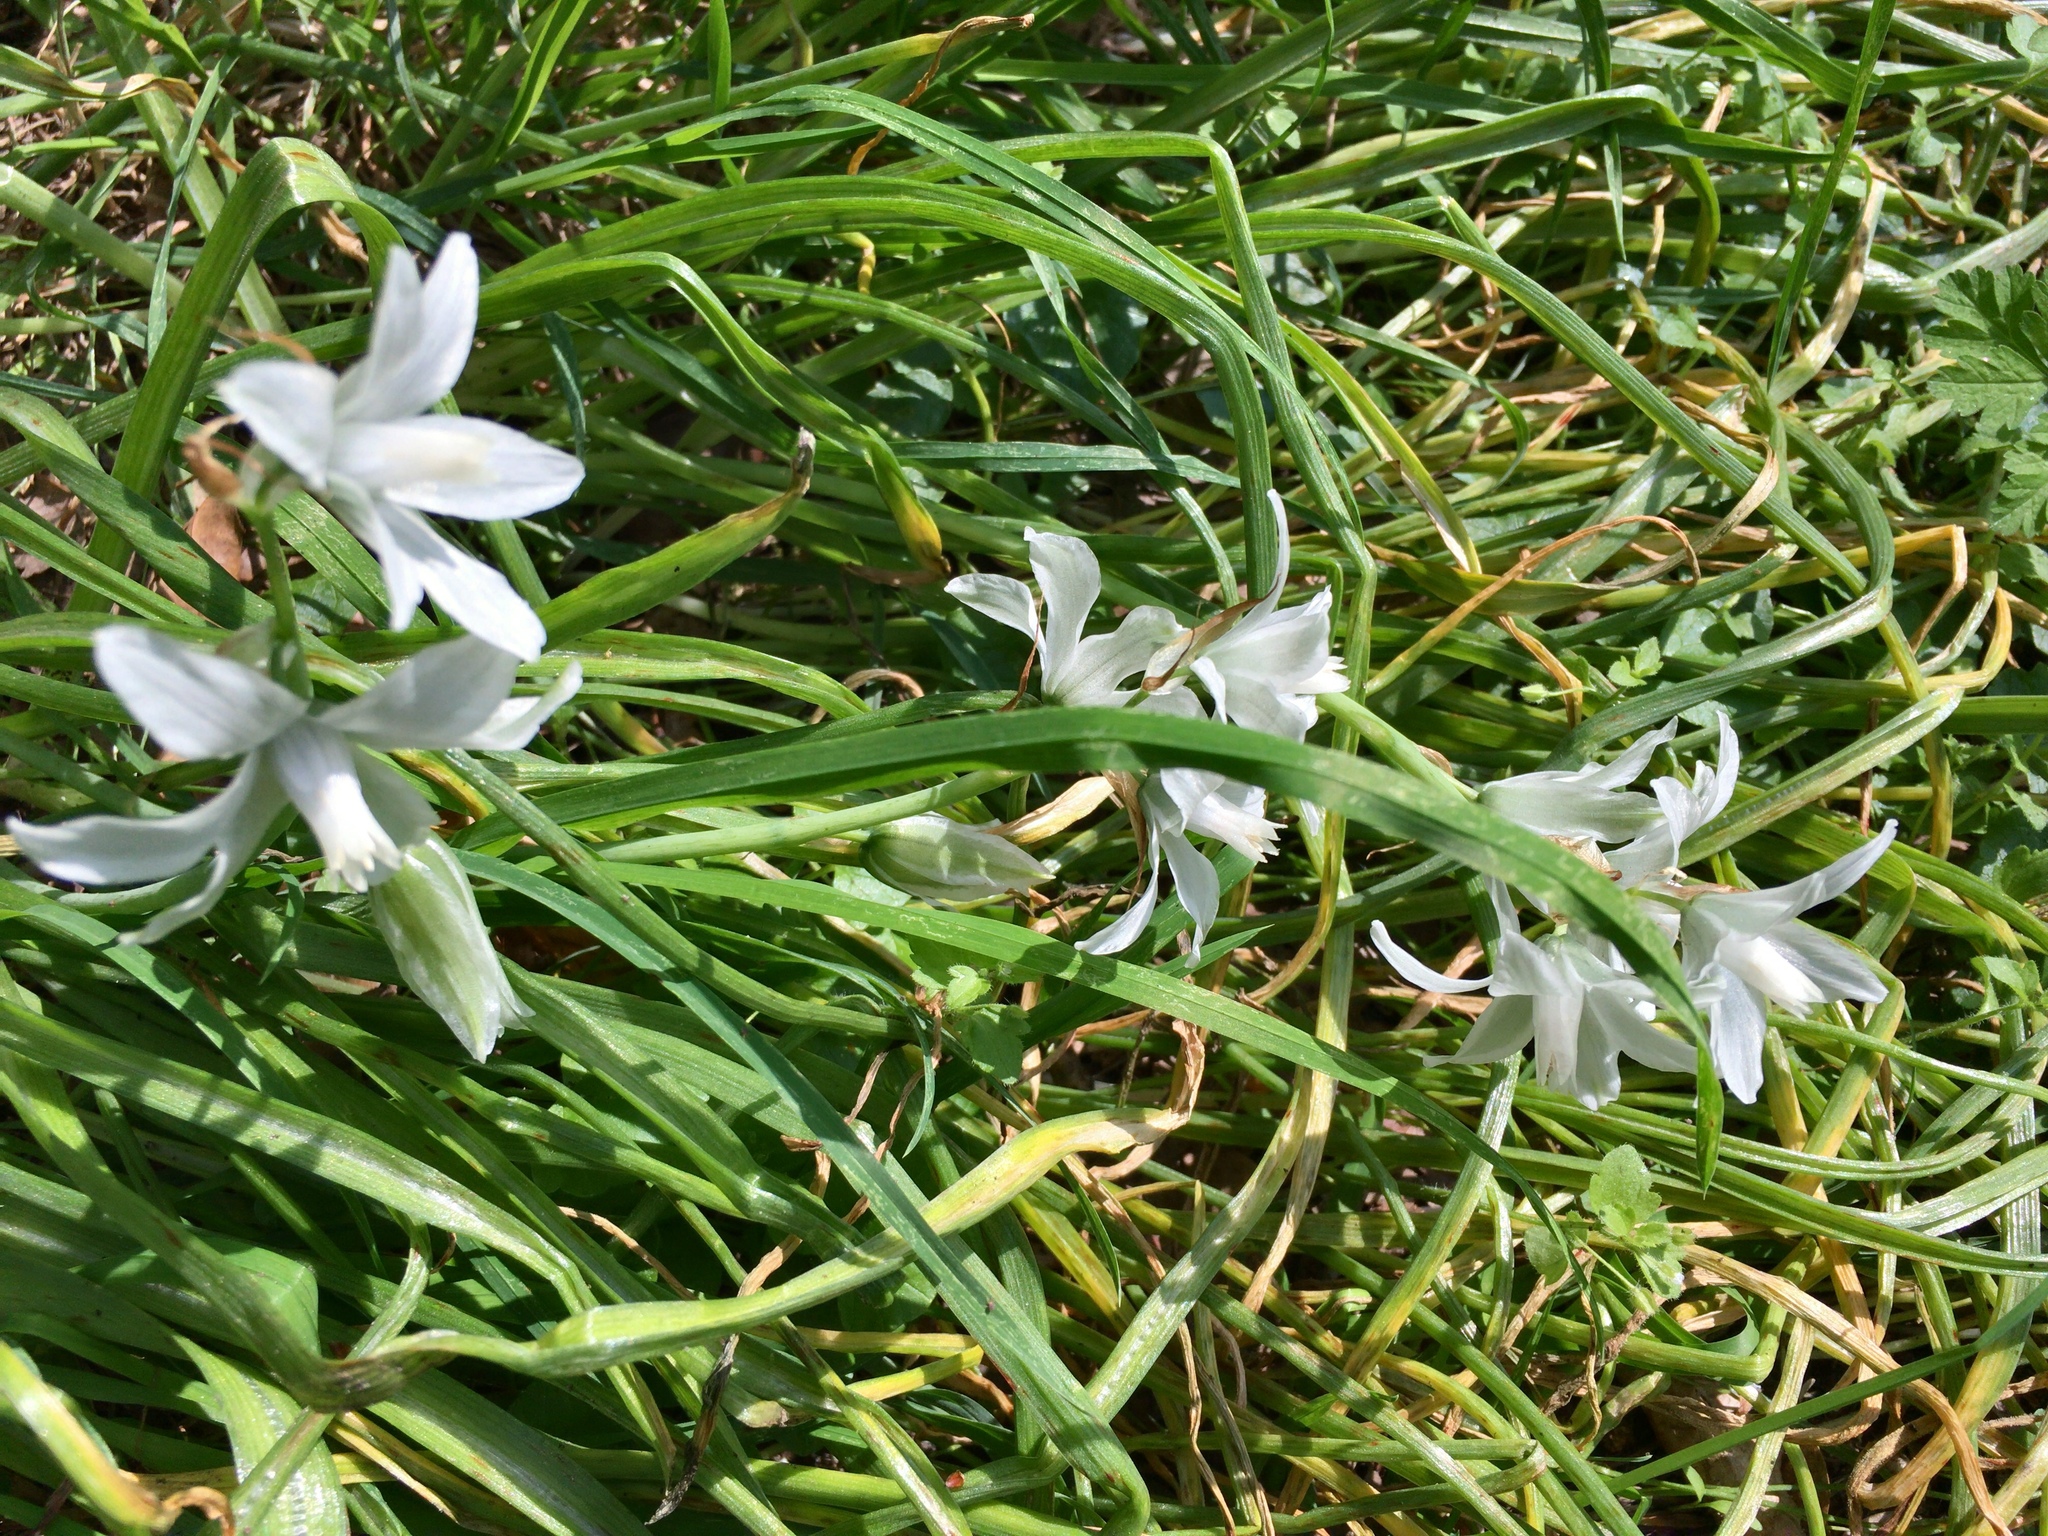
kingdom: Plantae
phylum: Tracheophyta
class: Liliopsida
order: Asparagales
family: Asparagaceae
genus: Ornithogalum
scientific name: Ornithogalum umbellatum
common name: Garden star-of-bethlehem
